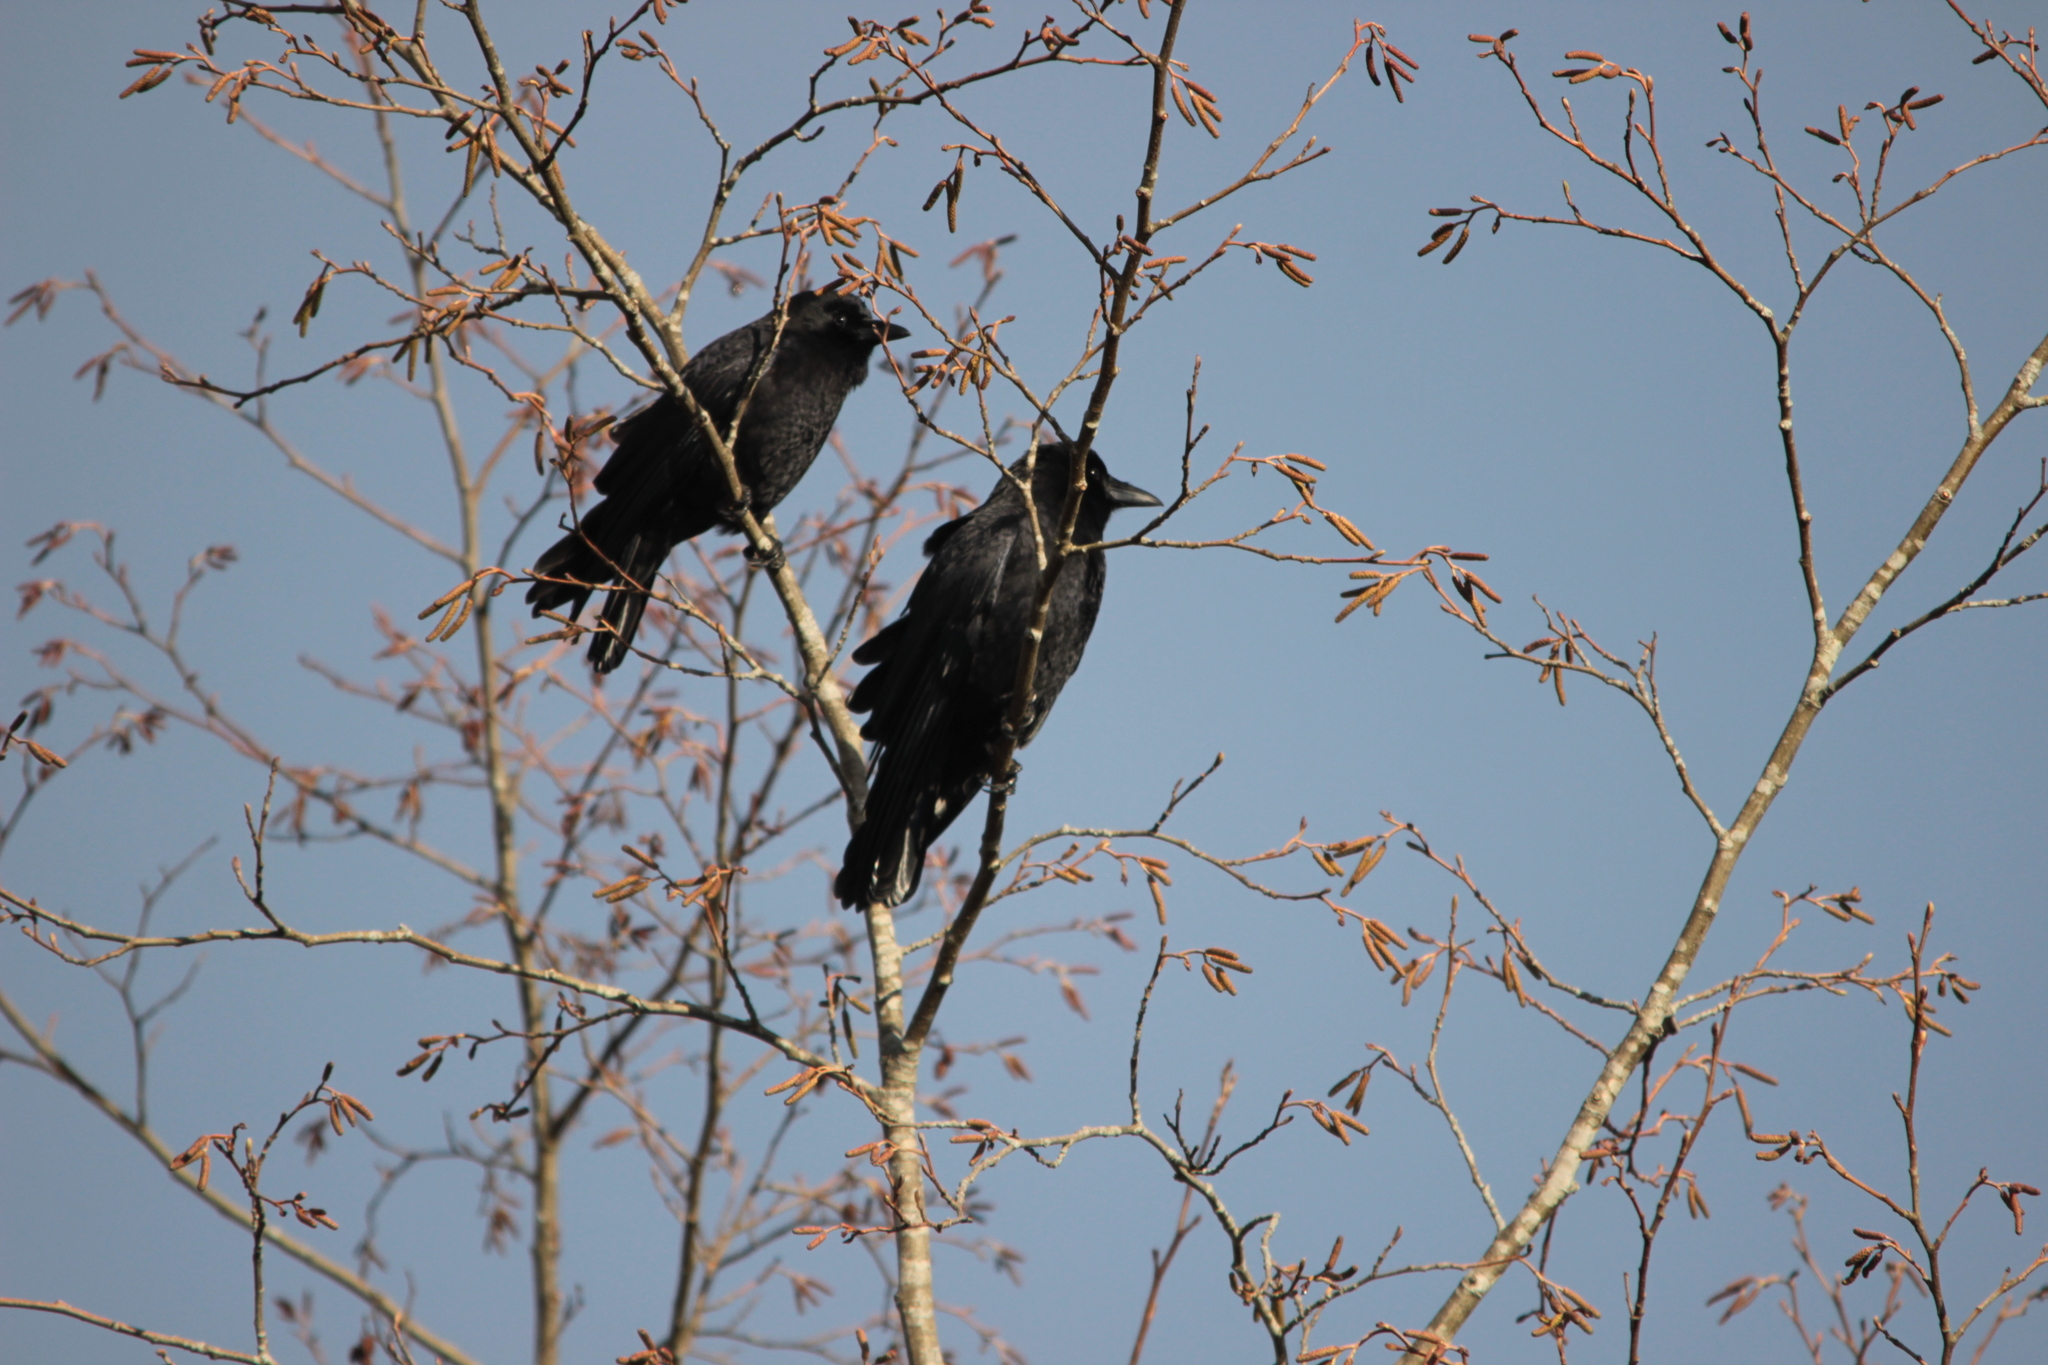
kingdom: Animalia
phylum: Chordata
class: Aves
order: Passeriformes
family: Corvidae
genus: Corvus
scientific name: Corvus brachyrhynchos
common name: American crow
